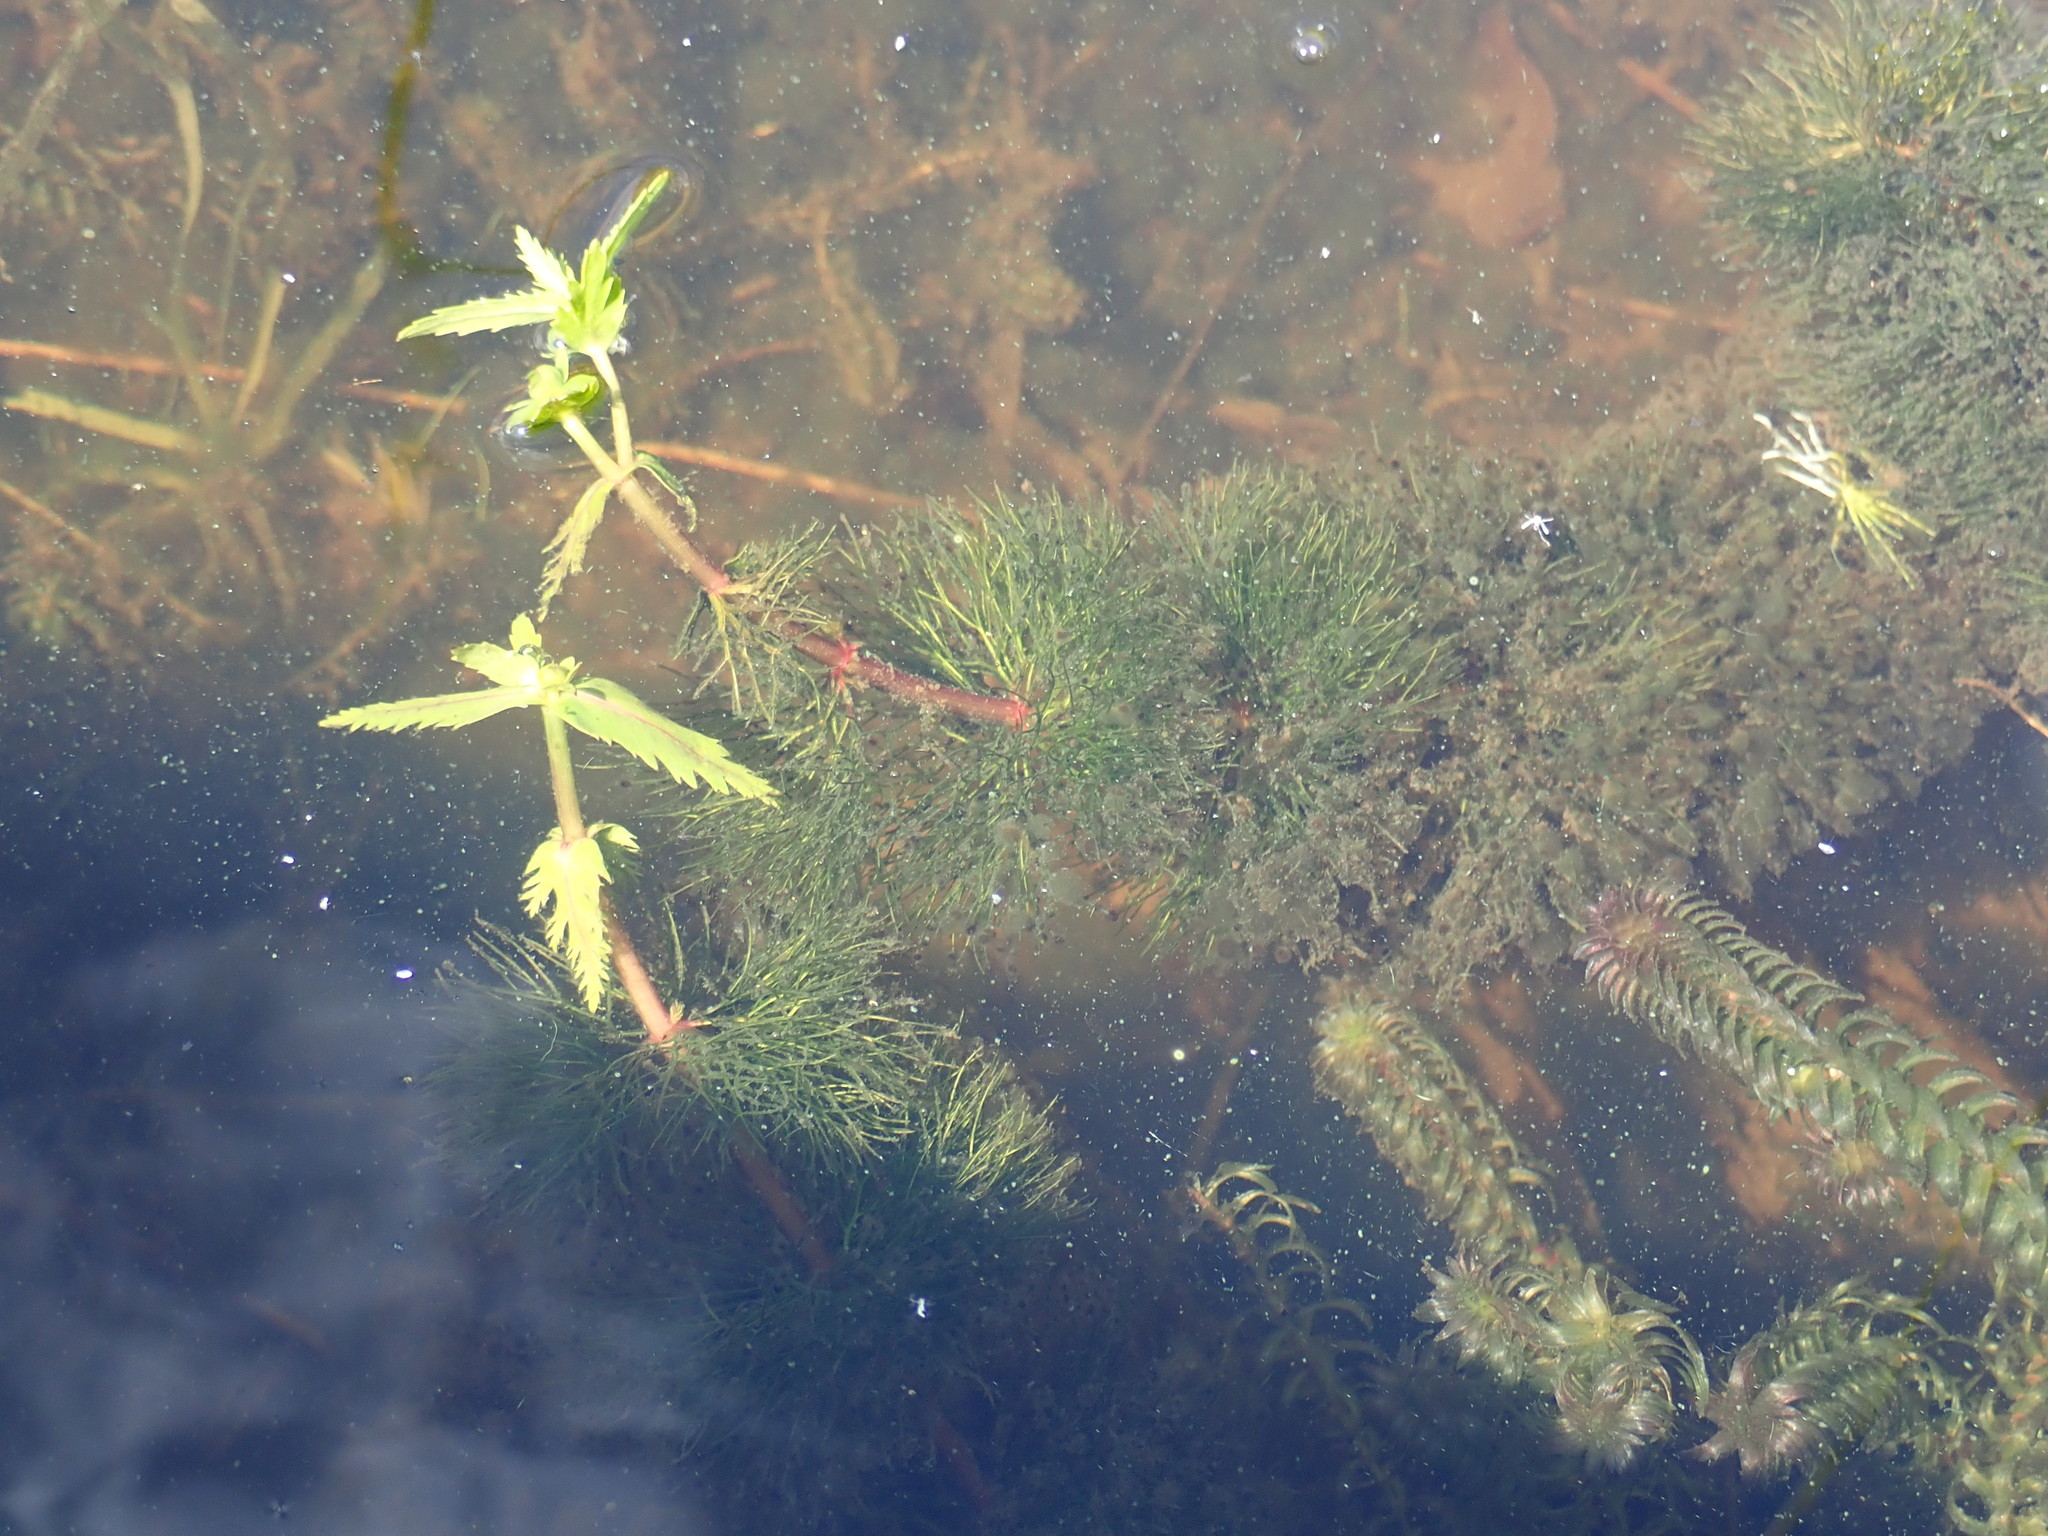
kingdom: Plantae
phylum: Tracheophyta
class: Magnoliopsida
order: Asterales
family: Asteraceae
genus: Bidens
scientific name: Bidens beckii
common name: Beck's beggarticks
